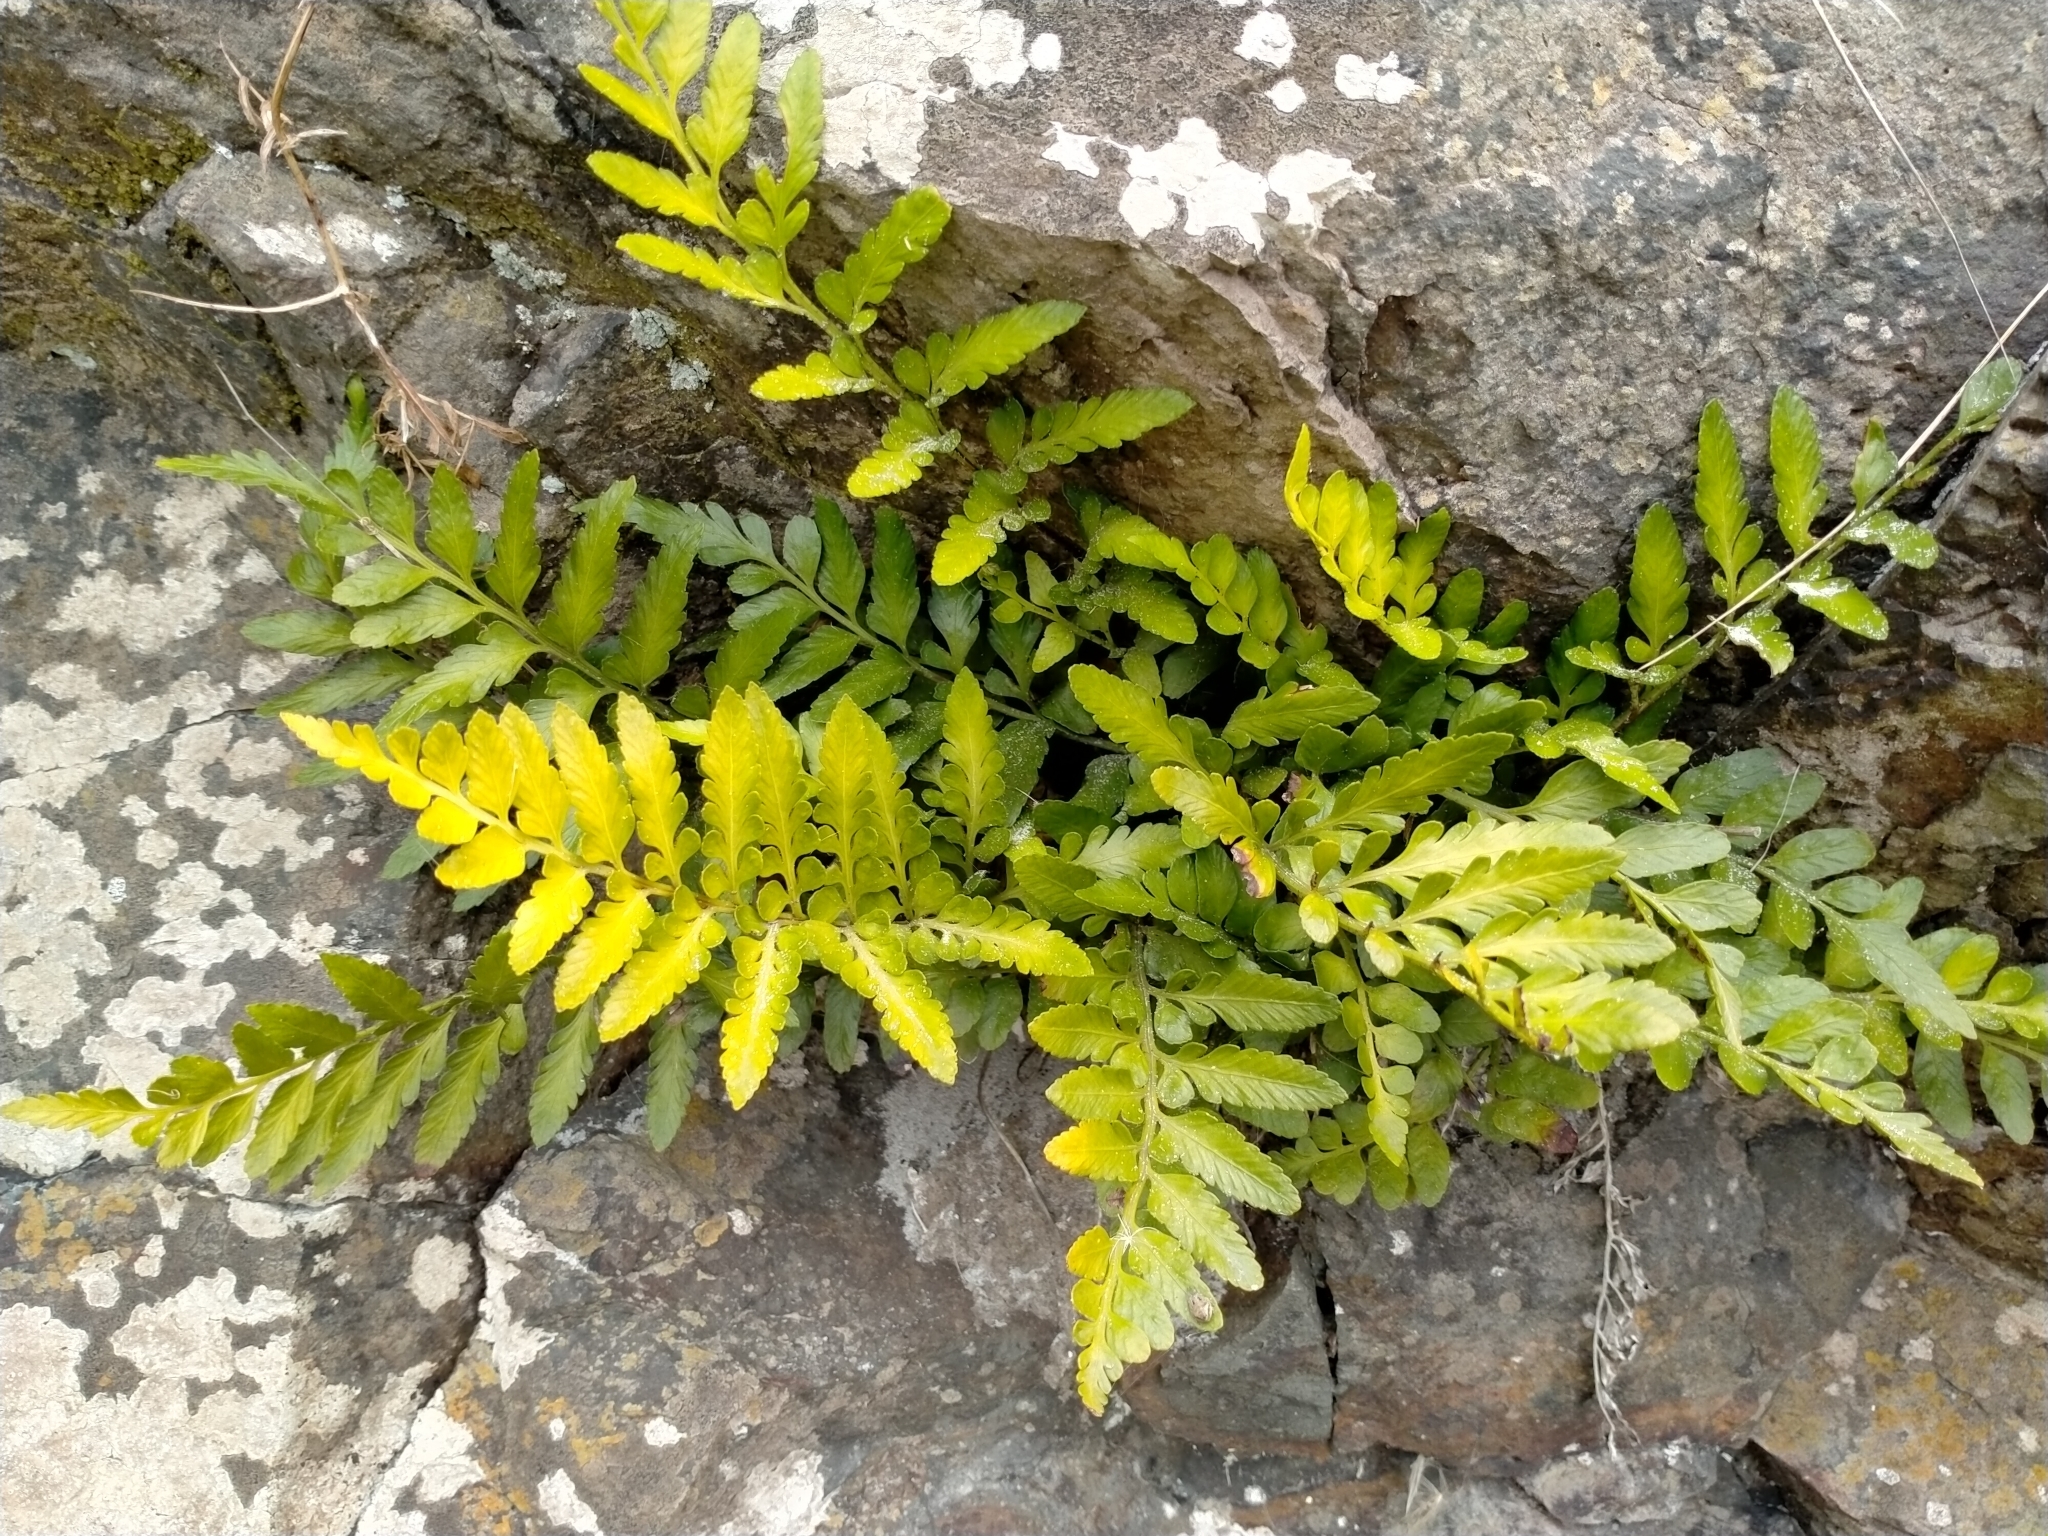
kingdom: Plantae
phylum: Tracheophyta
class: Polypodiopsida
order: Polypodiales
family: Aspleniaceae
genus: Asplenium
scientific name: Asplenium lyallii
